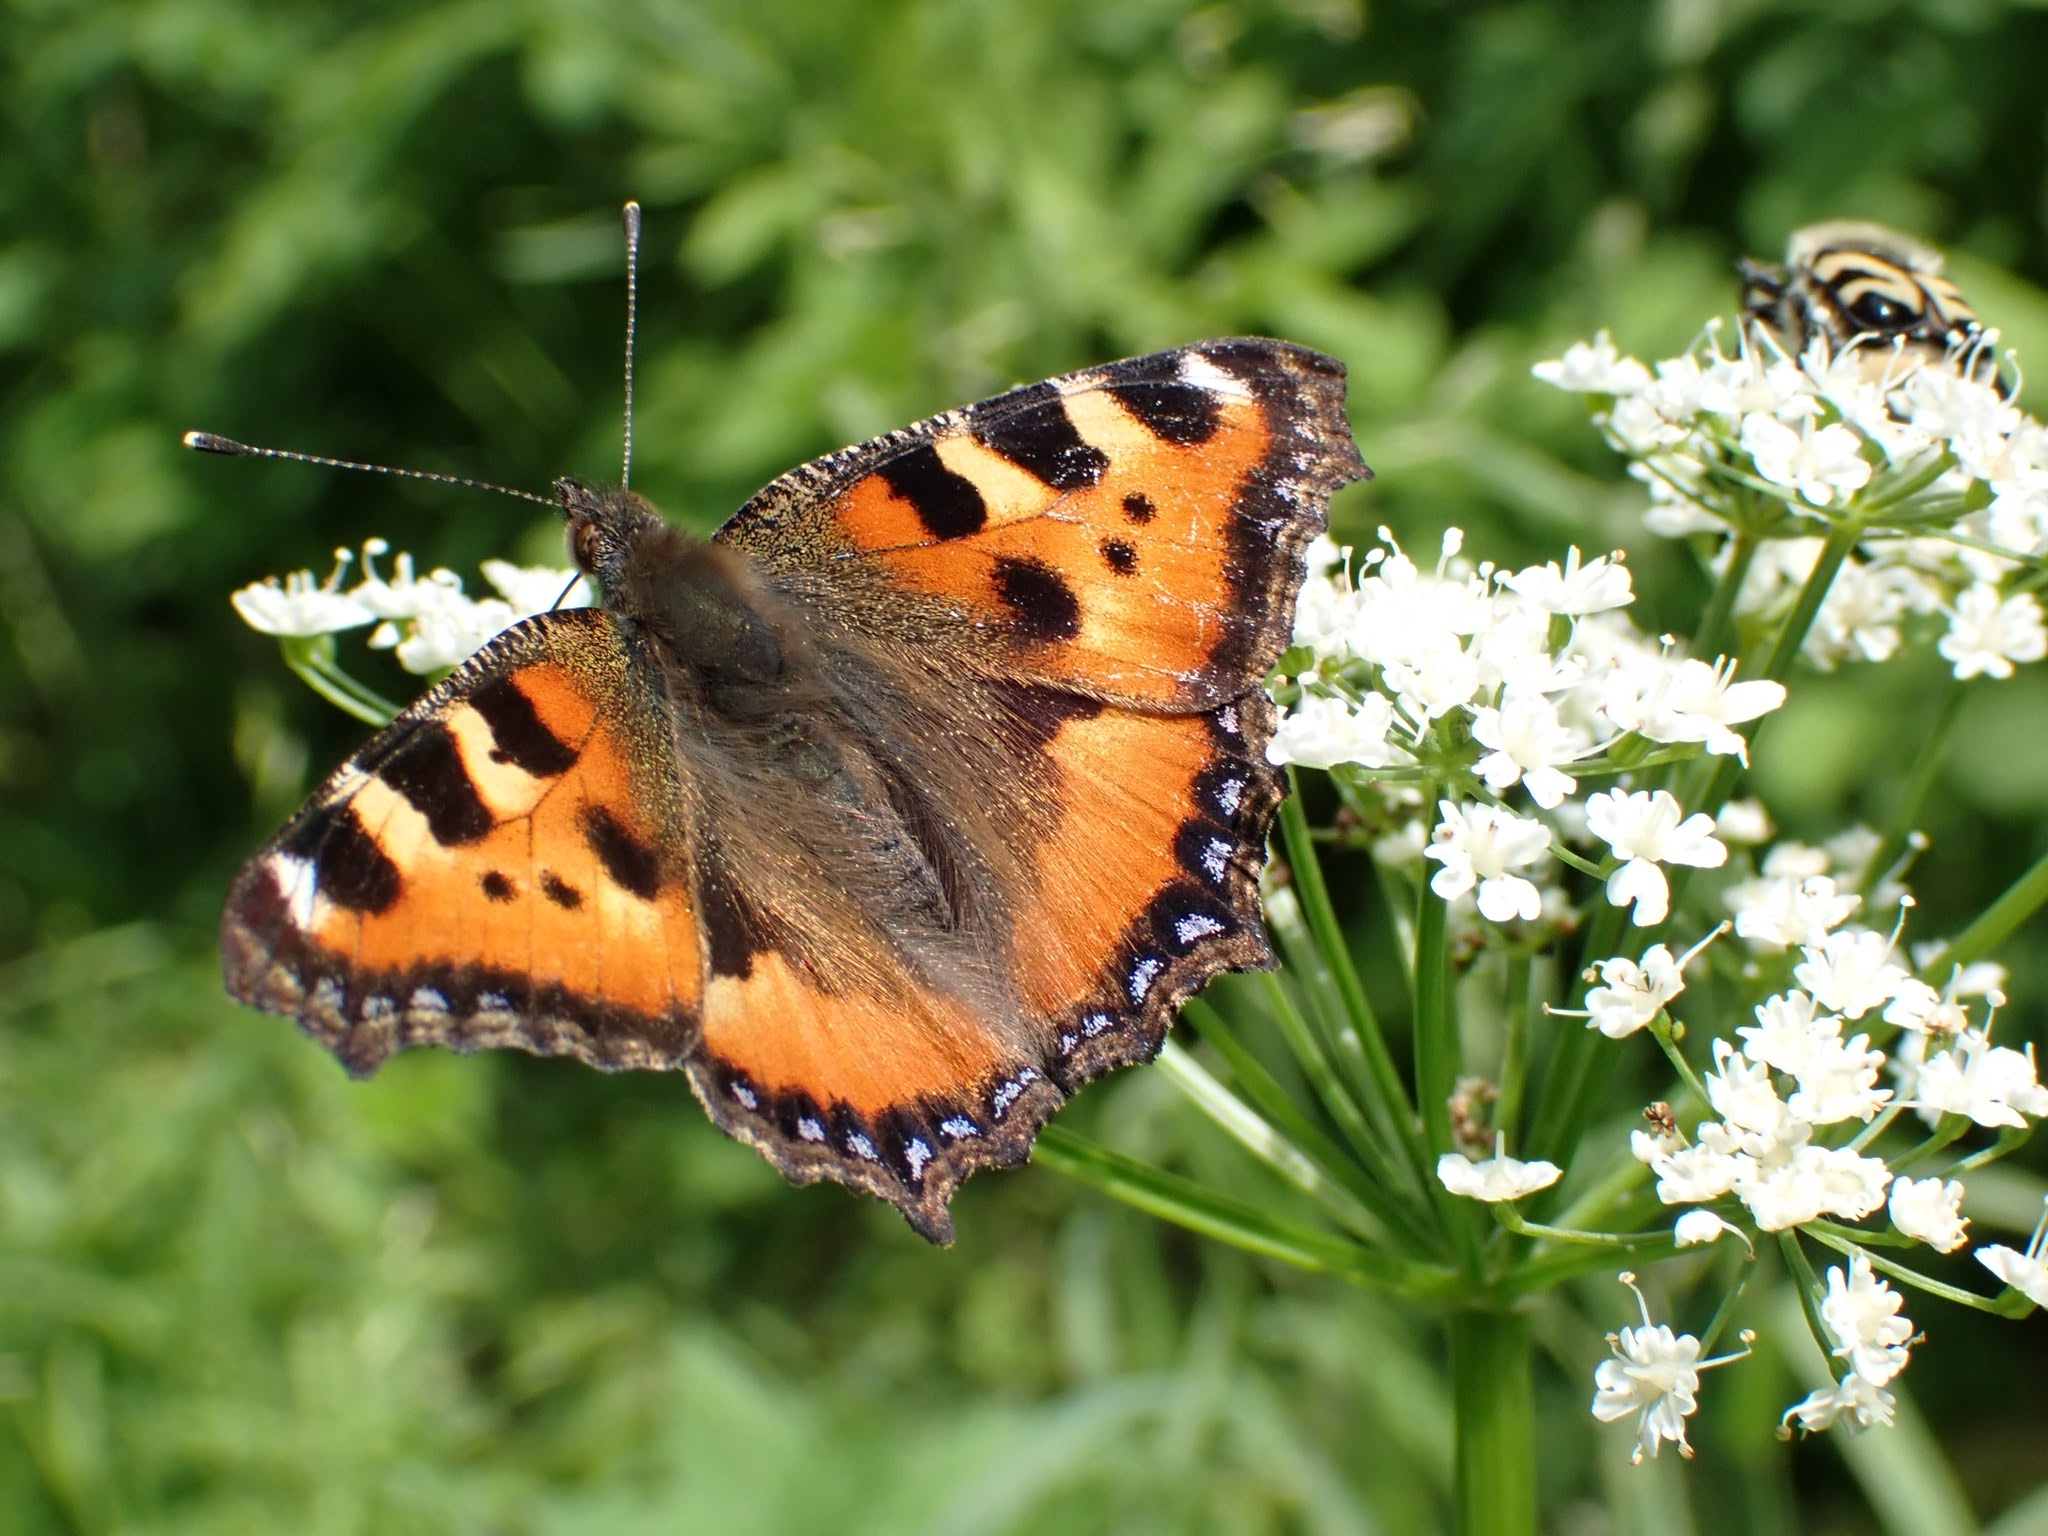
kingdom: Animalia
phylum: Arthropoda
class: Insecta
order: Lepidoptera
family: Nymphalidae
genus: Aglais
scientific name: Aglais urticae
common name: Small tortoiseshell
